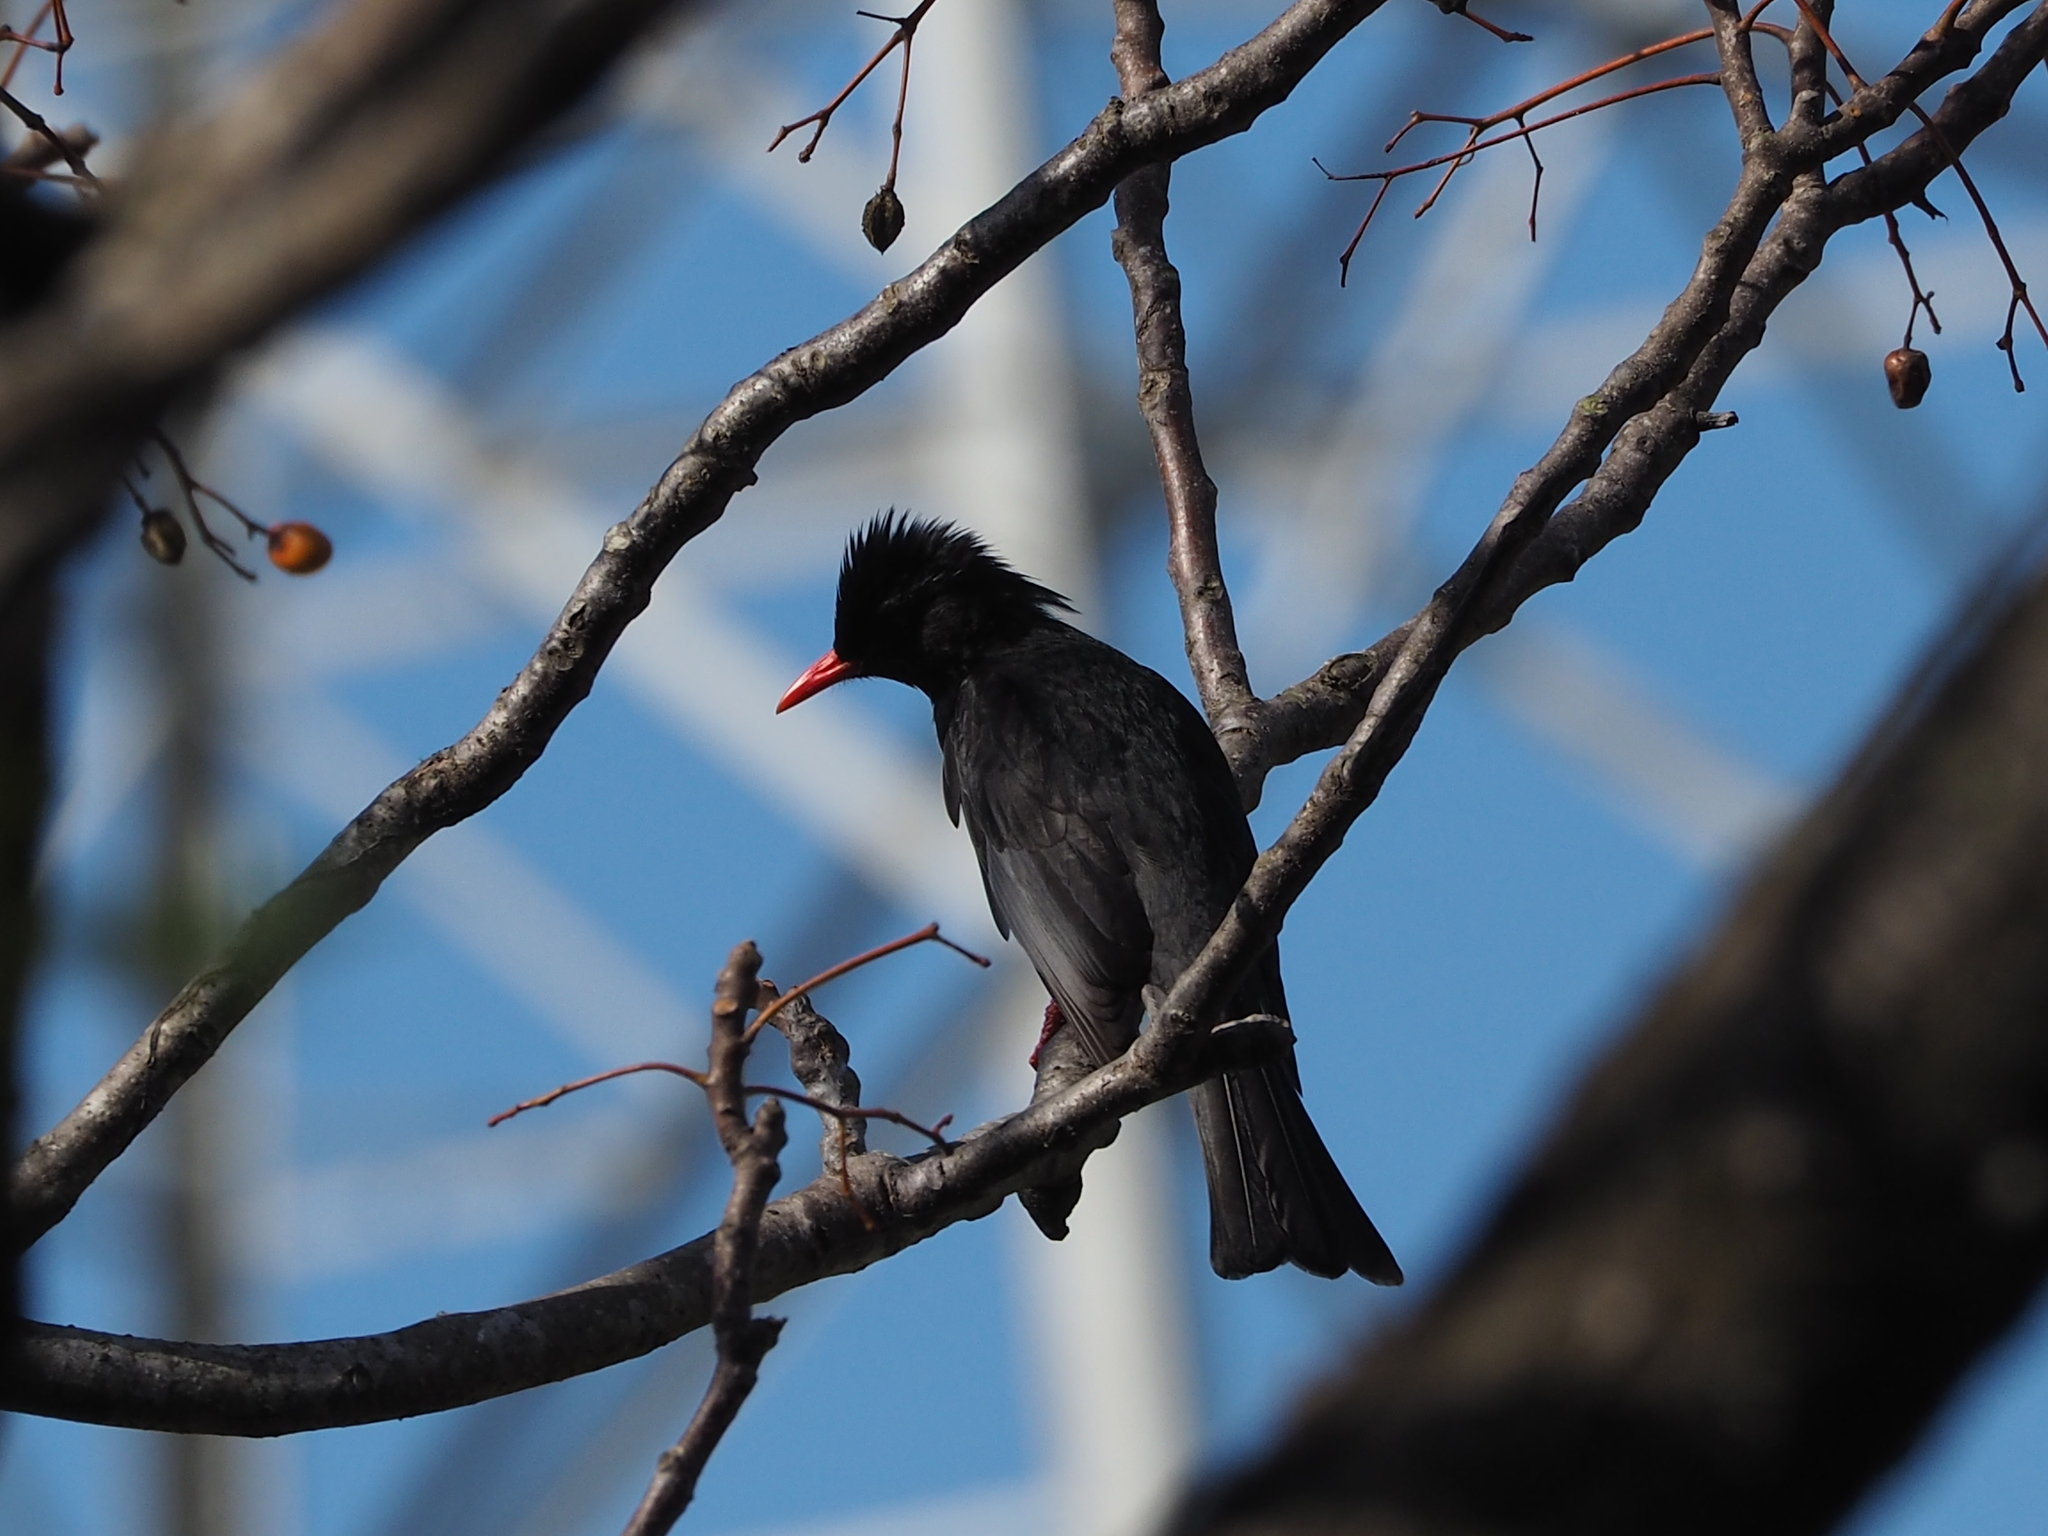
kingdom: Animalia
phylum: Chordata
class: Aves
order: Passeriformes
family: Pycnonotidae
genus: Hypsipetes
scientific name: Hypsipetes leucocephalus
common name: Black bulbul
